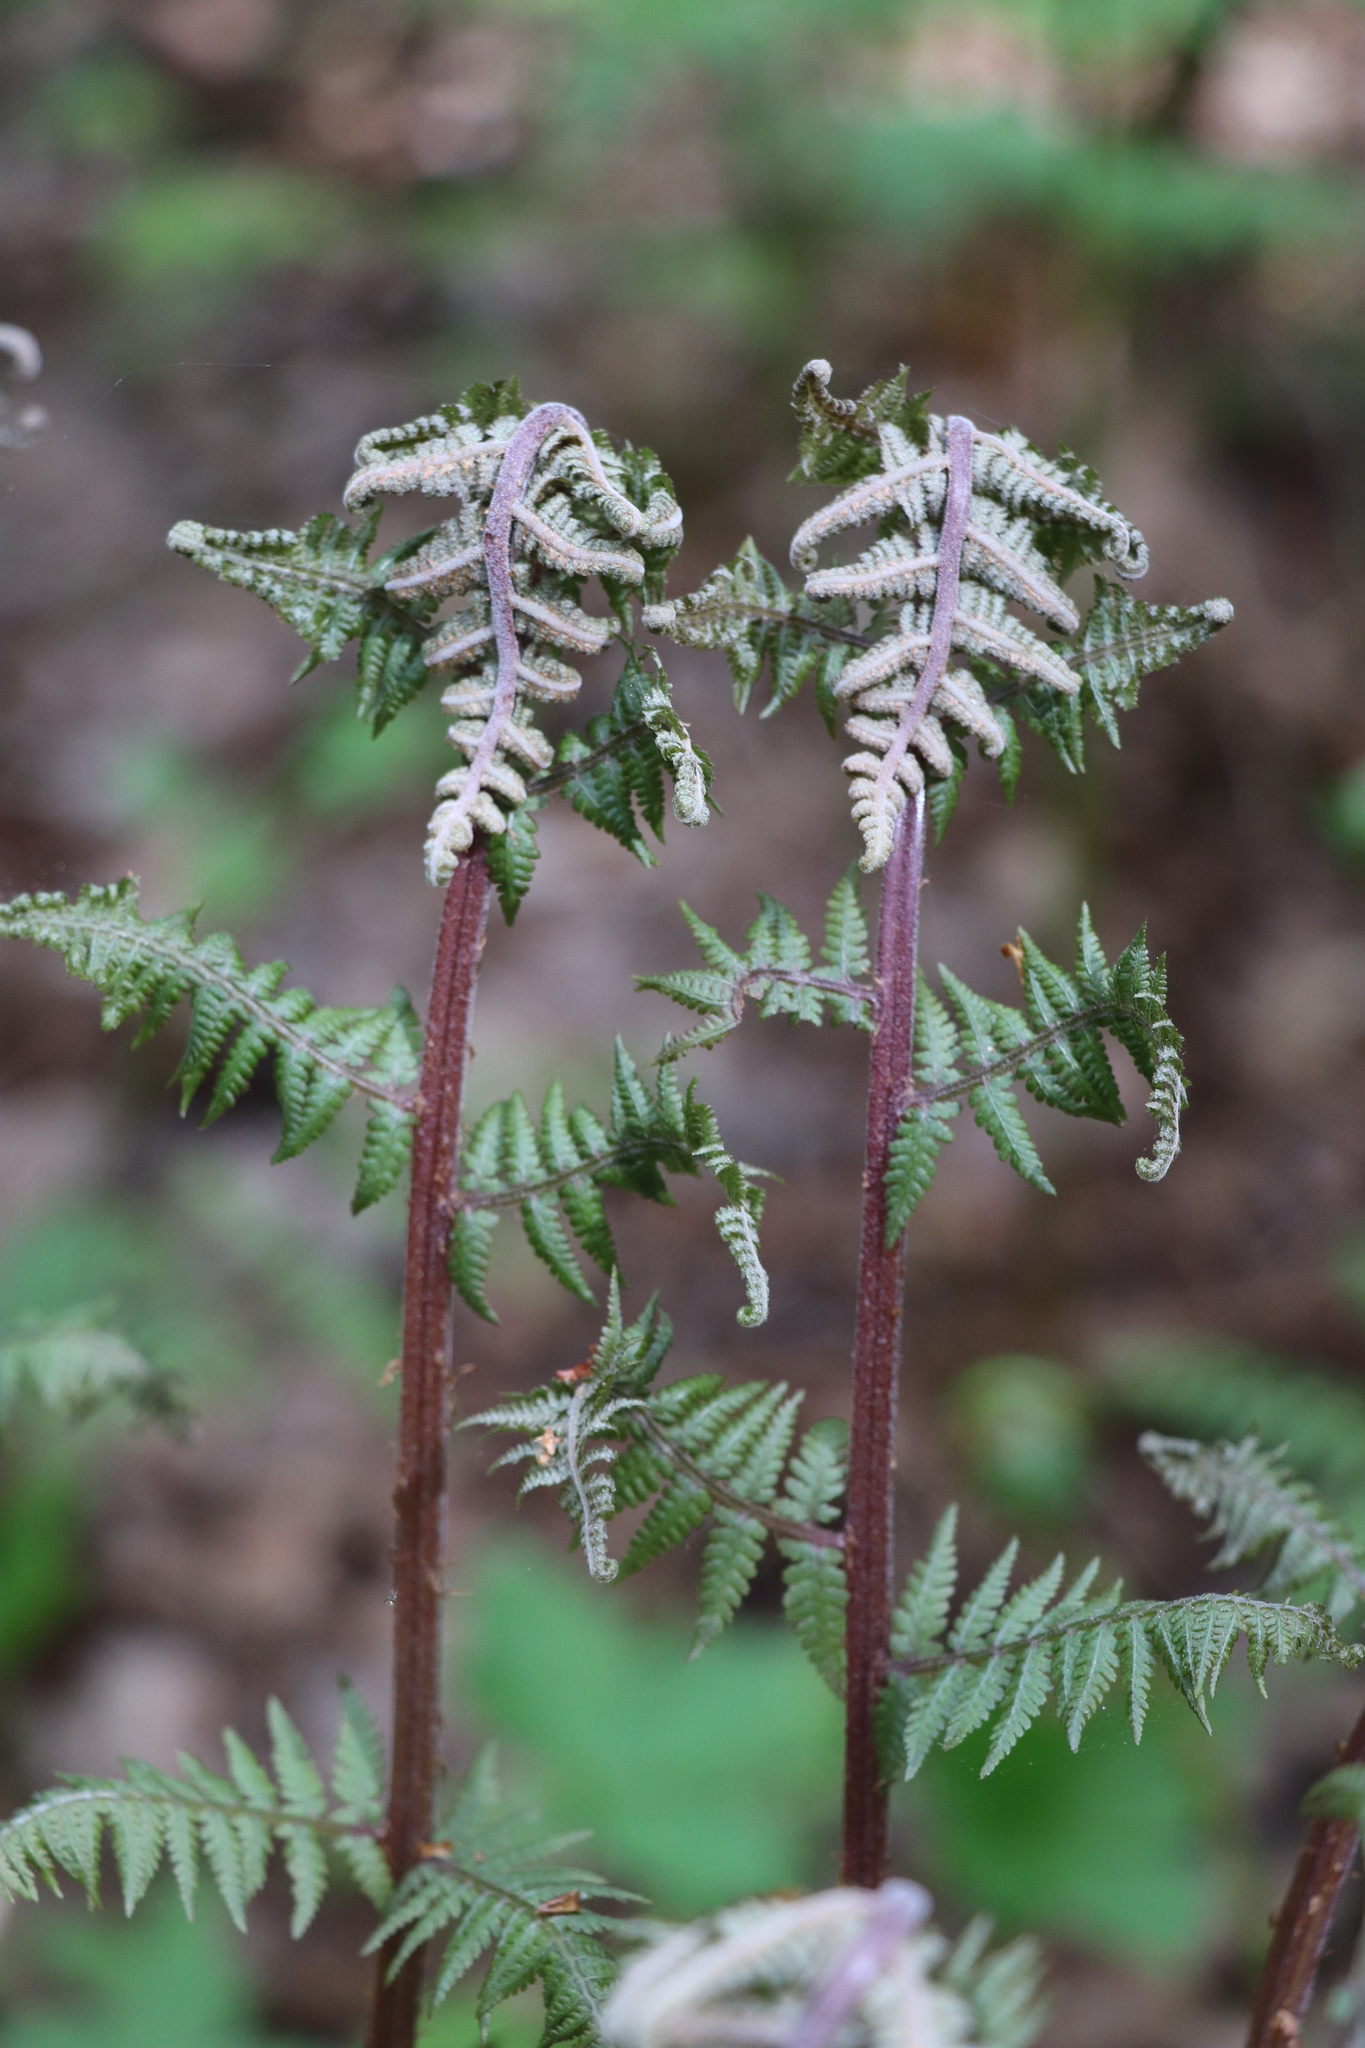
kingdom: Plantae
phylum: Tracheophyta
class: Polypodiopsida
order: Polypodiales
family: Athyriaceae
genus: Athyrium
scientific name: Athyrium filix-femina
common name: Lady fern
